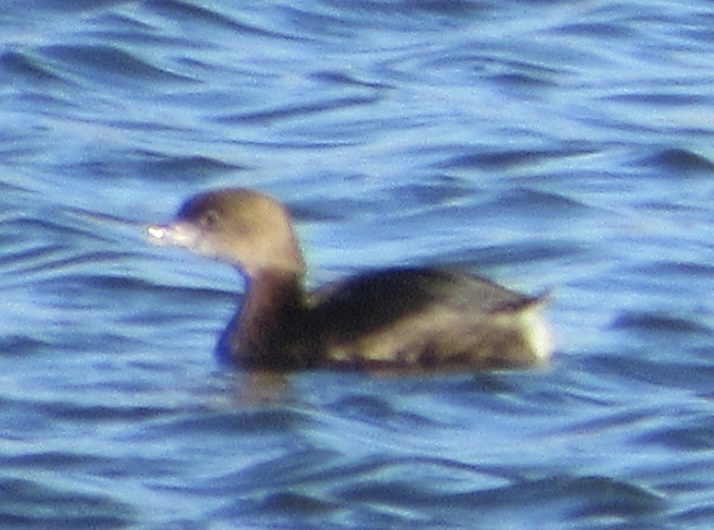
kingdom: Animalia
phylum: Chordata
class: Aves
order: Podicipediformes
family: Podicipedidae
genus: Podilymbus
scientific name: Podilymbus podiceps
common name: Pied-billed grebe
